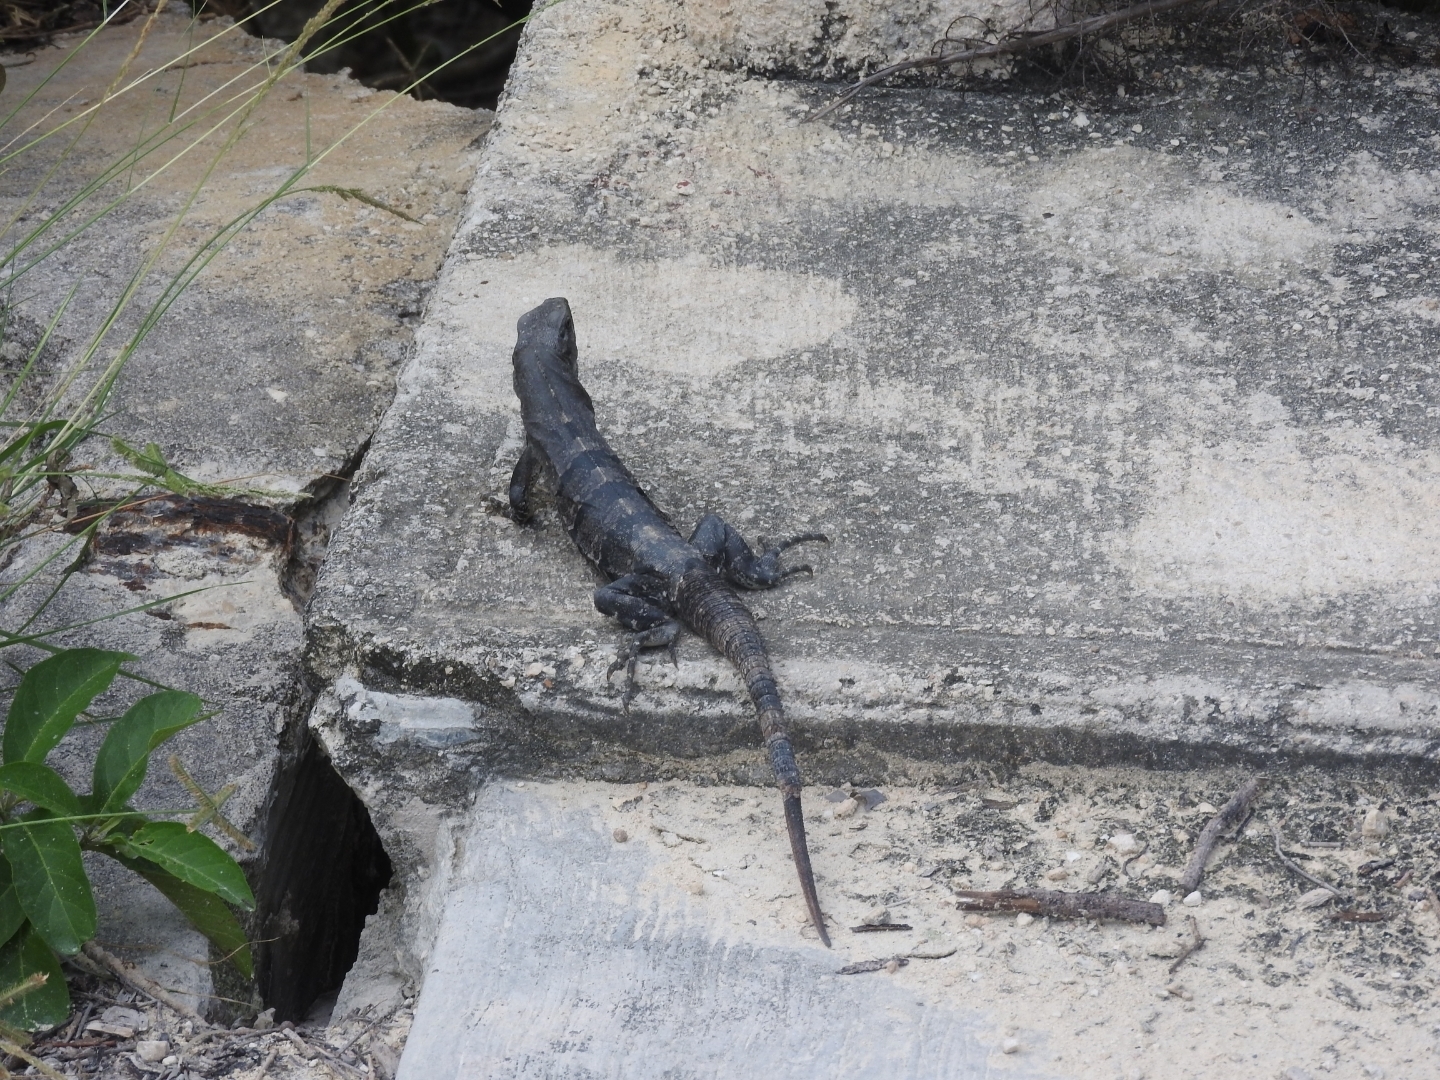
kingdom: Animalia
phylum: Chordata
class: Squamata
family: Iguanidae
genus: Ctenosaura
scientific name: Ctenosaura similis
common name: Black spiny-tailed iguana
